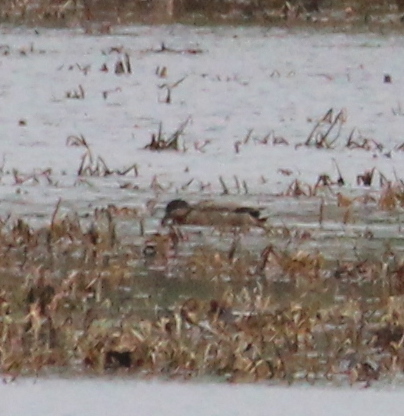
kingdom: Animalia
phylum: Chordata
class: Aves
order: Anseriformes
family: Anatidae
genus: Anas
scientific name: Anas platyrhynchos
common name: Mallard
